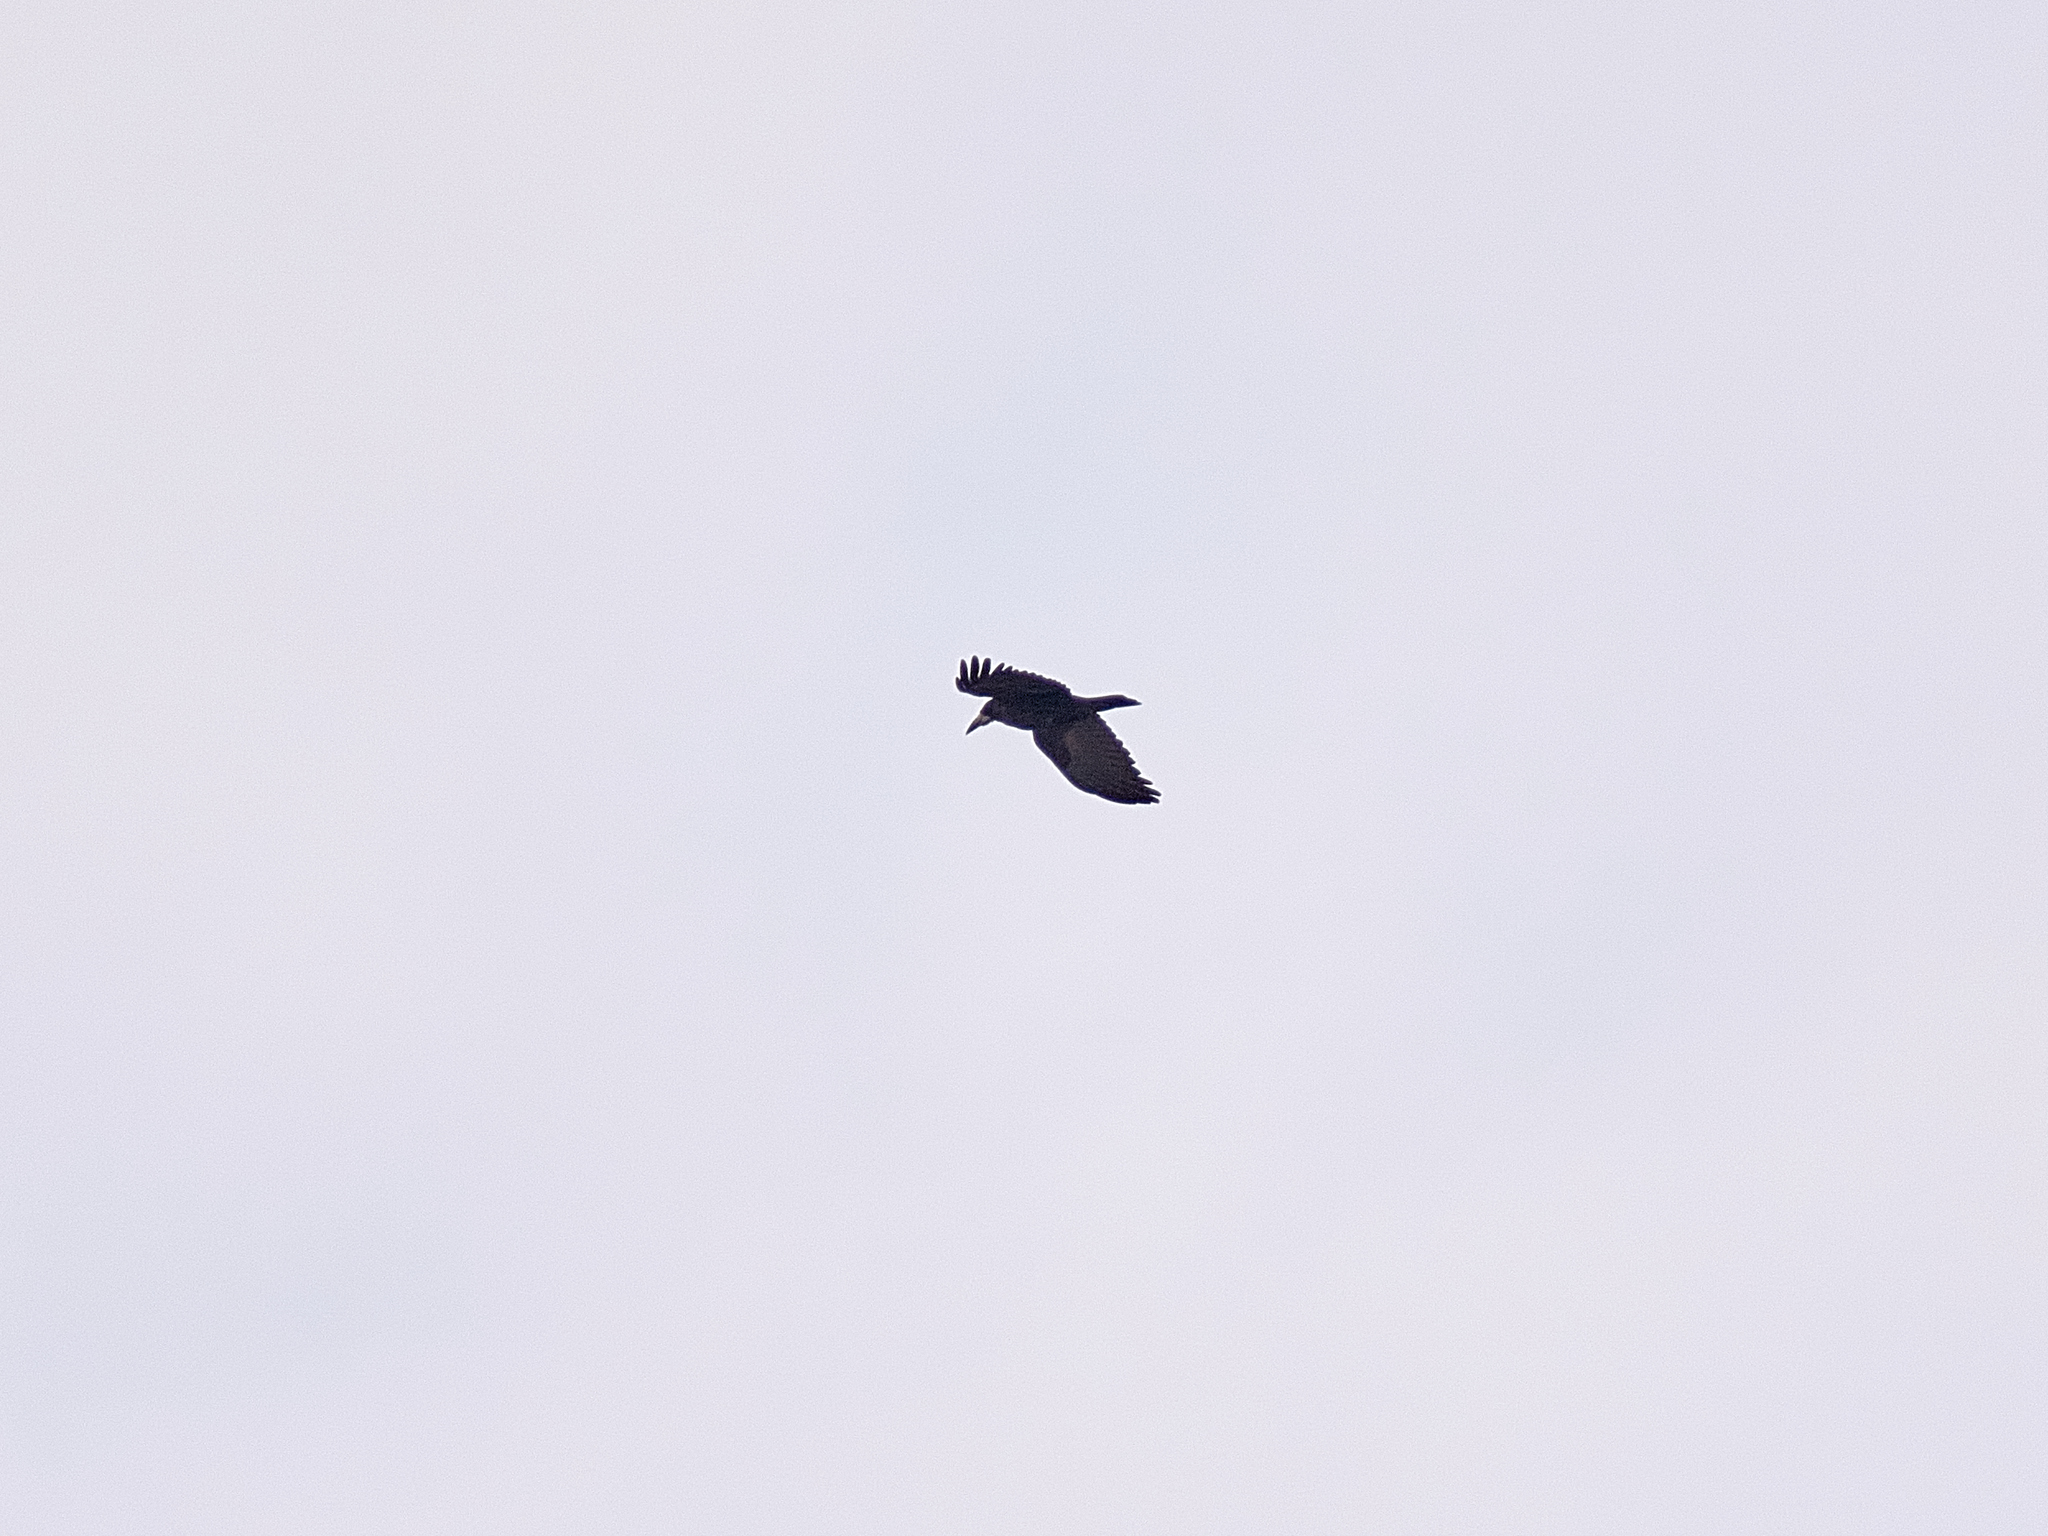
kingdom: Animalia
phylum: Chordata
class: Aves
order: Passeriformes
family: Corvidae
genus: Corvus
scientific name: Corvus frugilegus
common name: Rook
